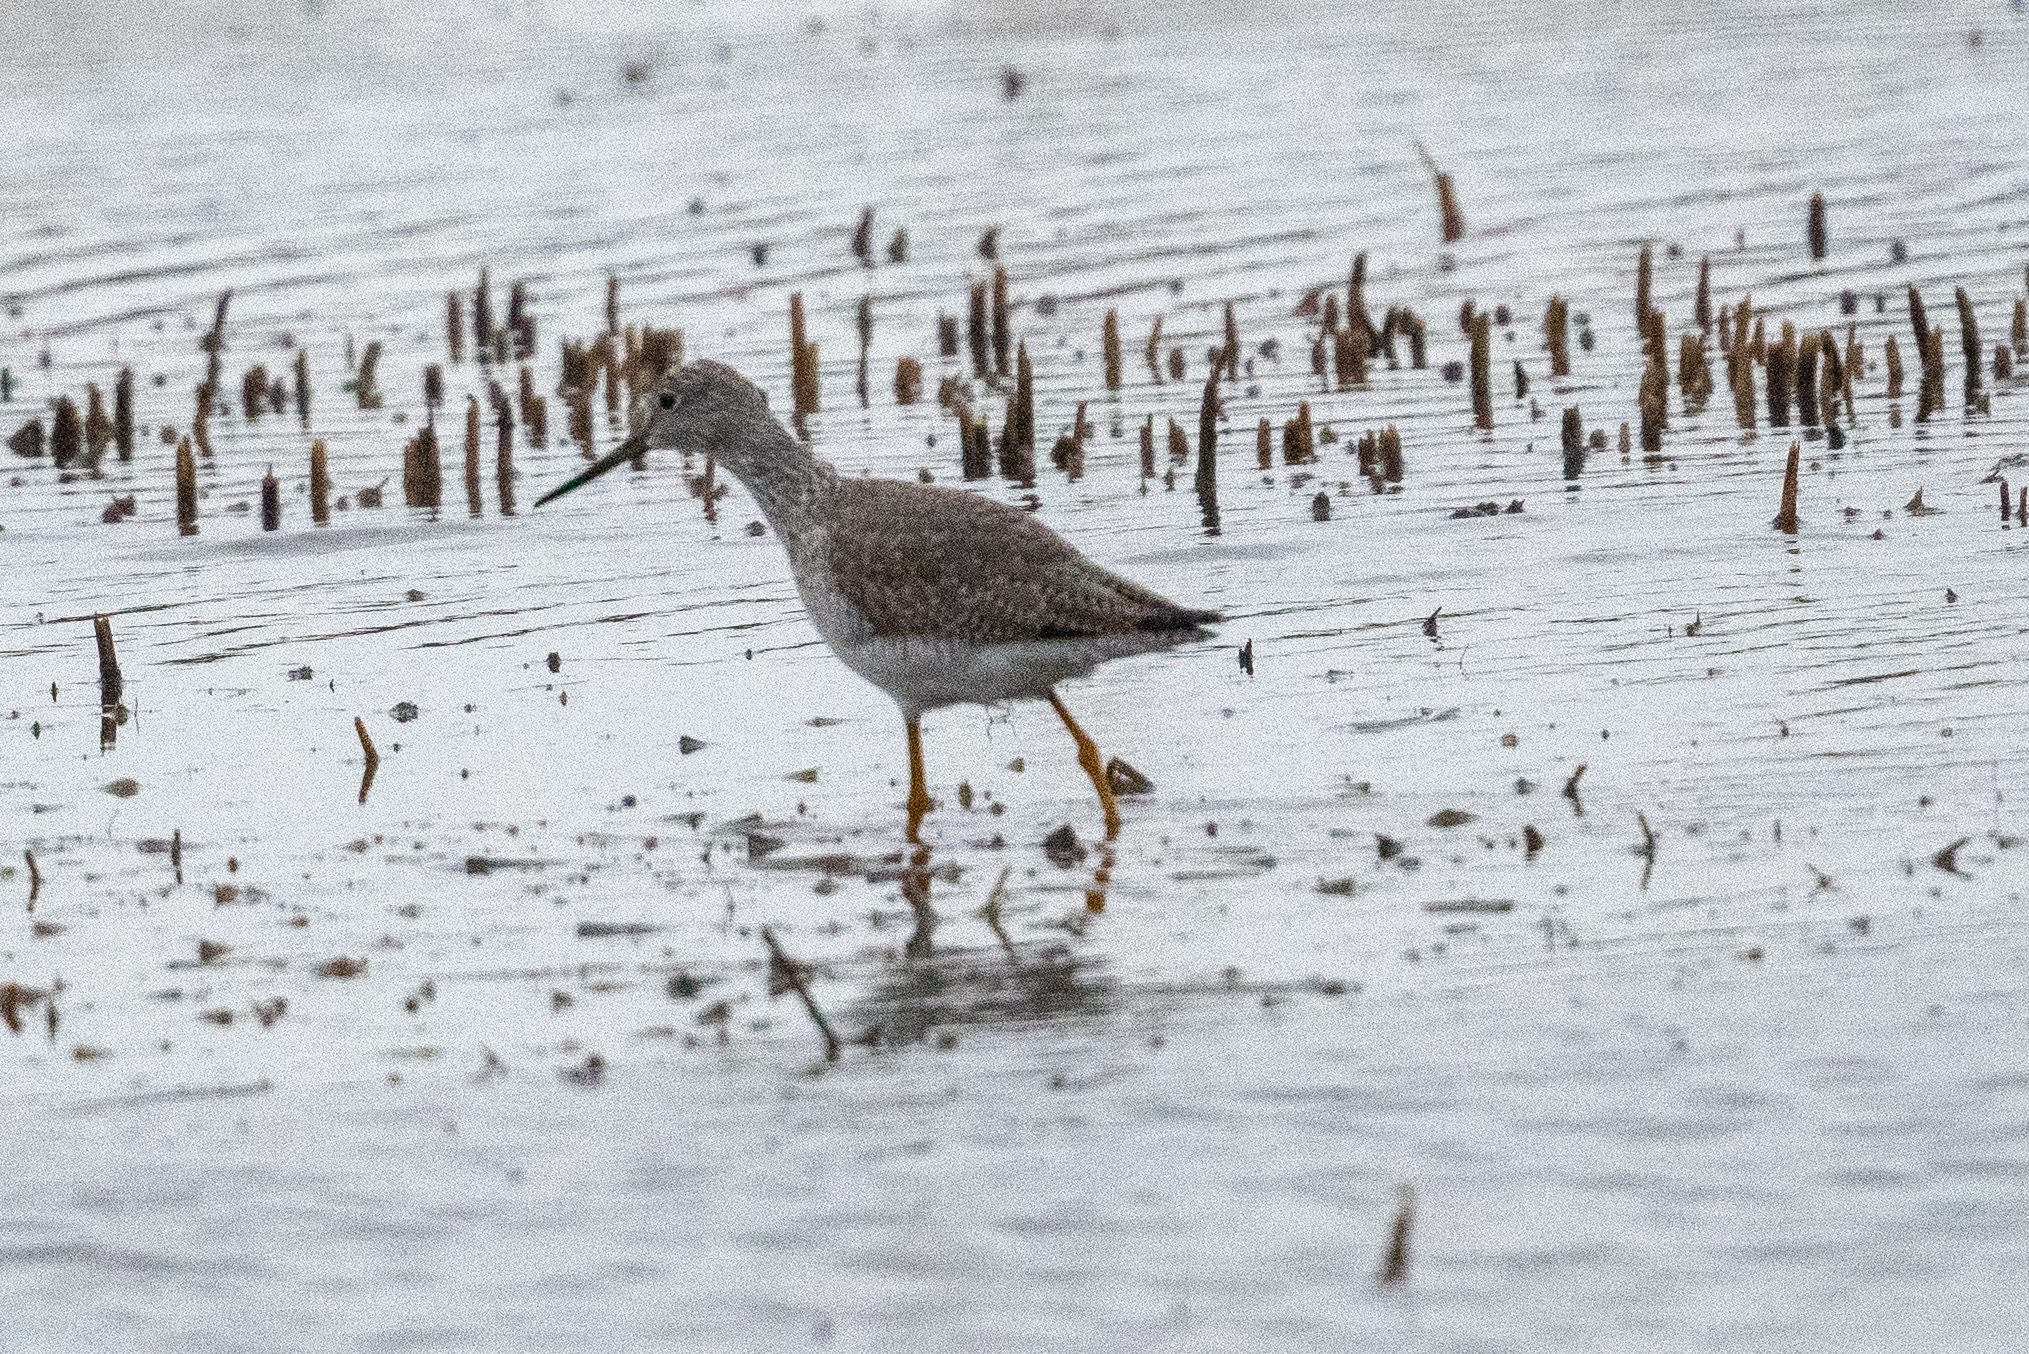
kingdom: Animalia
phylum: Chordata
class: Aves
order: Charadriiformes
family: Scolopacidae
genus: Tringa
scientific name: Tringa melanoleuca
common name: Greater yellowlegs
